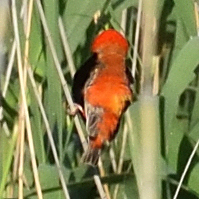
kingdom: Animalia
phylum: Chordata
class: Aves
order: Passeriformes
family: Ploceidae
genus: Euplectes
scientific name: Euplectes orix
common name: Southern red bishop
